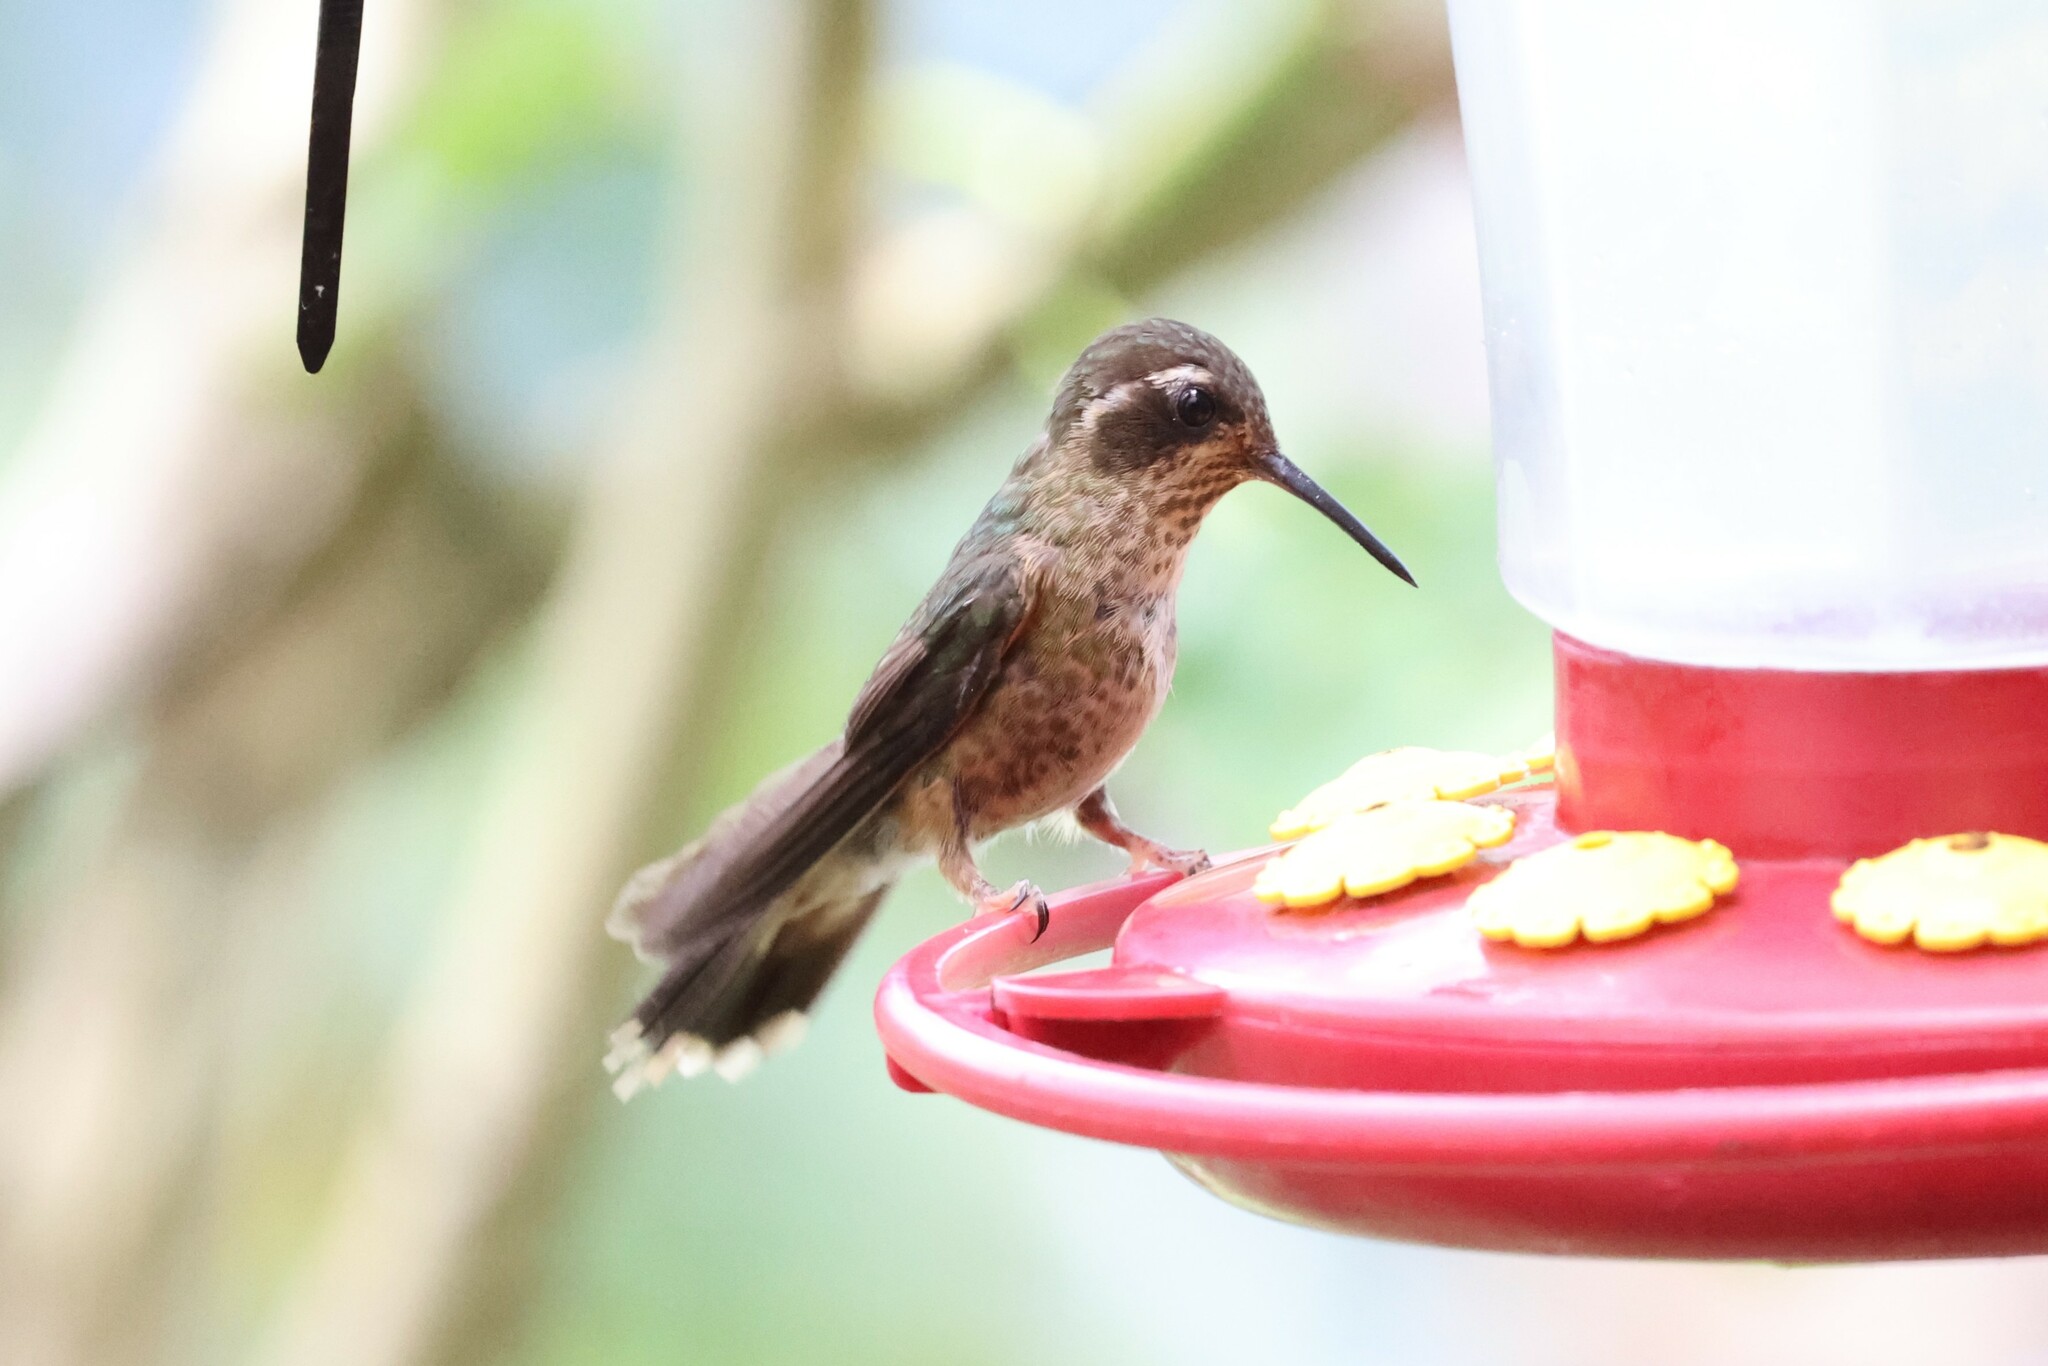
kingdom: Animalia
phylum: Chordata
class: Aves
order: Apodiformes
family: Trochilidae
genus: Adelomyia
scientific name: Adelomyia melanogenys
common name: Speckled hummingbird
